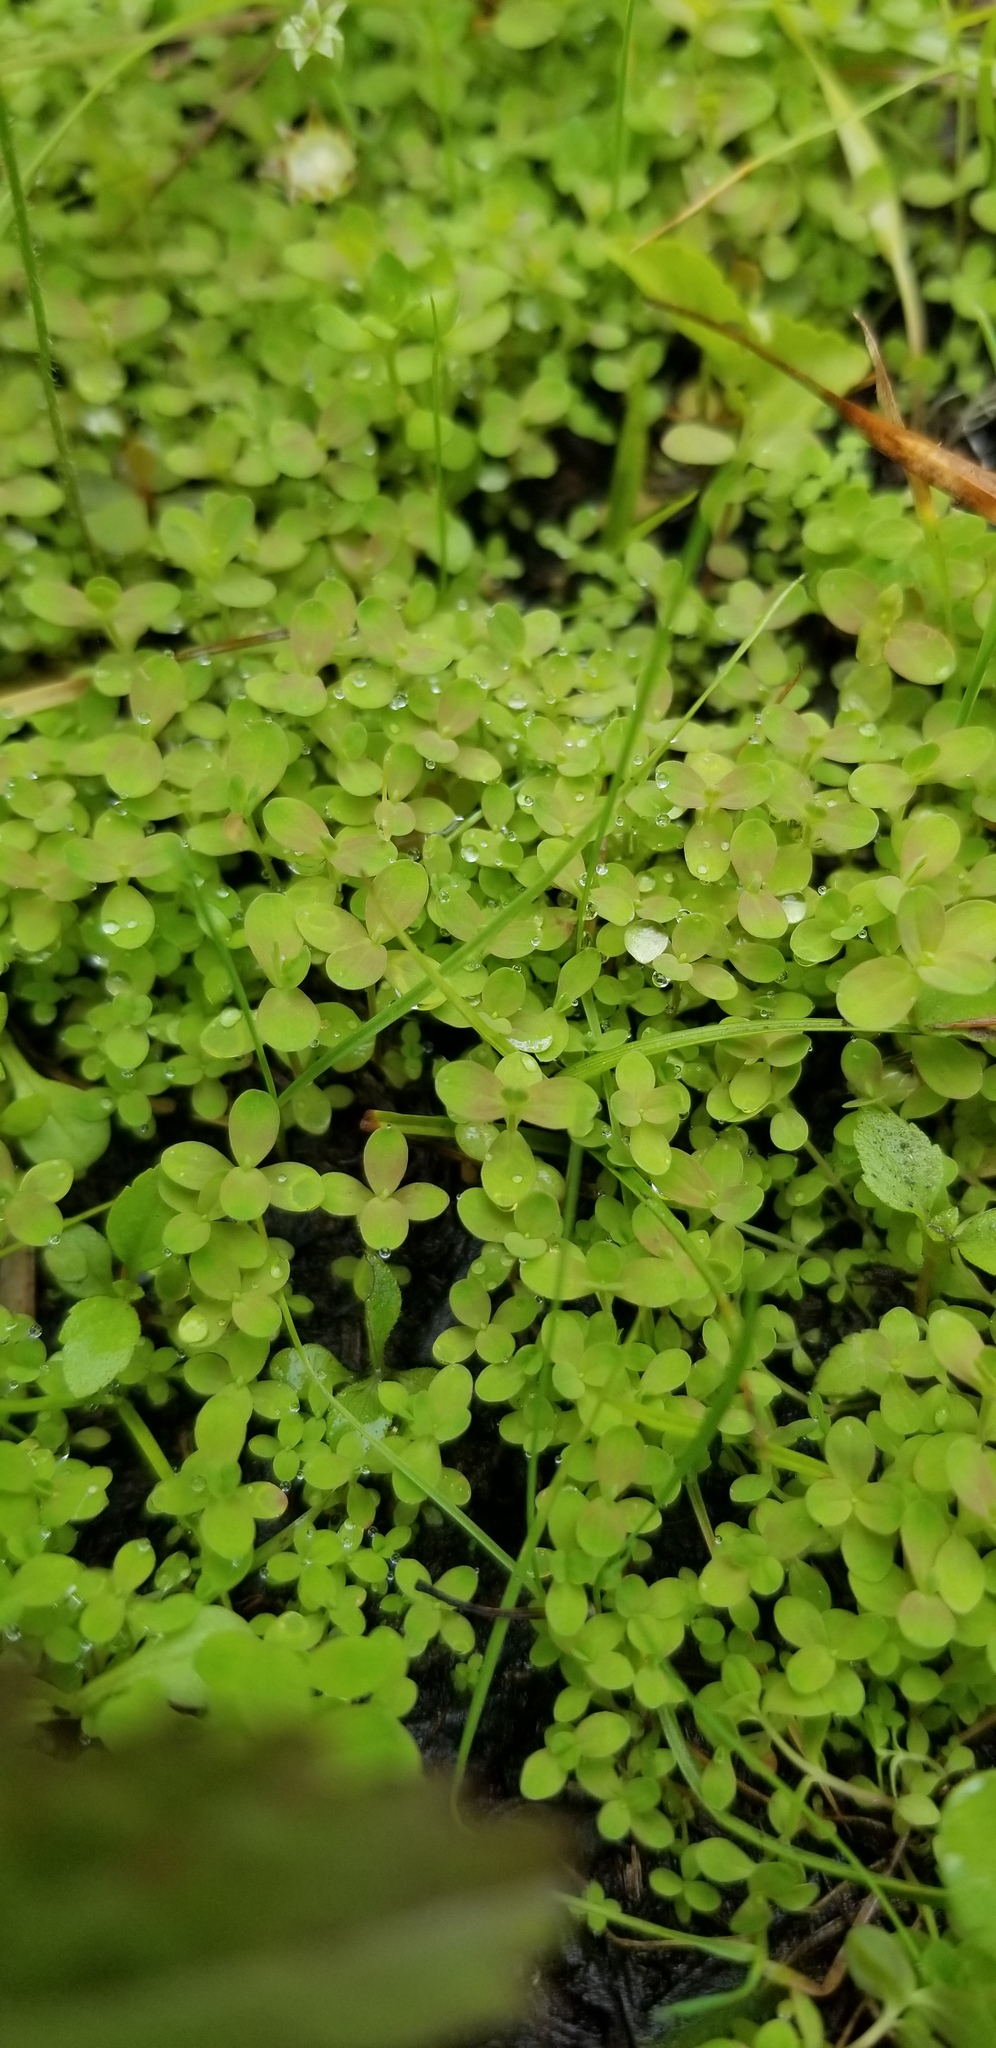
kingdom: Plantae
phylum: Tracheophyta
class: Magnoliopsida
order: Lamiales
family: Linderniaceae
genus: Micranthemum
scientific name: Micranthemum umbrosum
